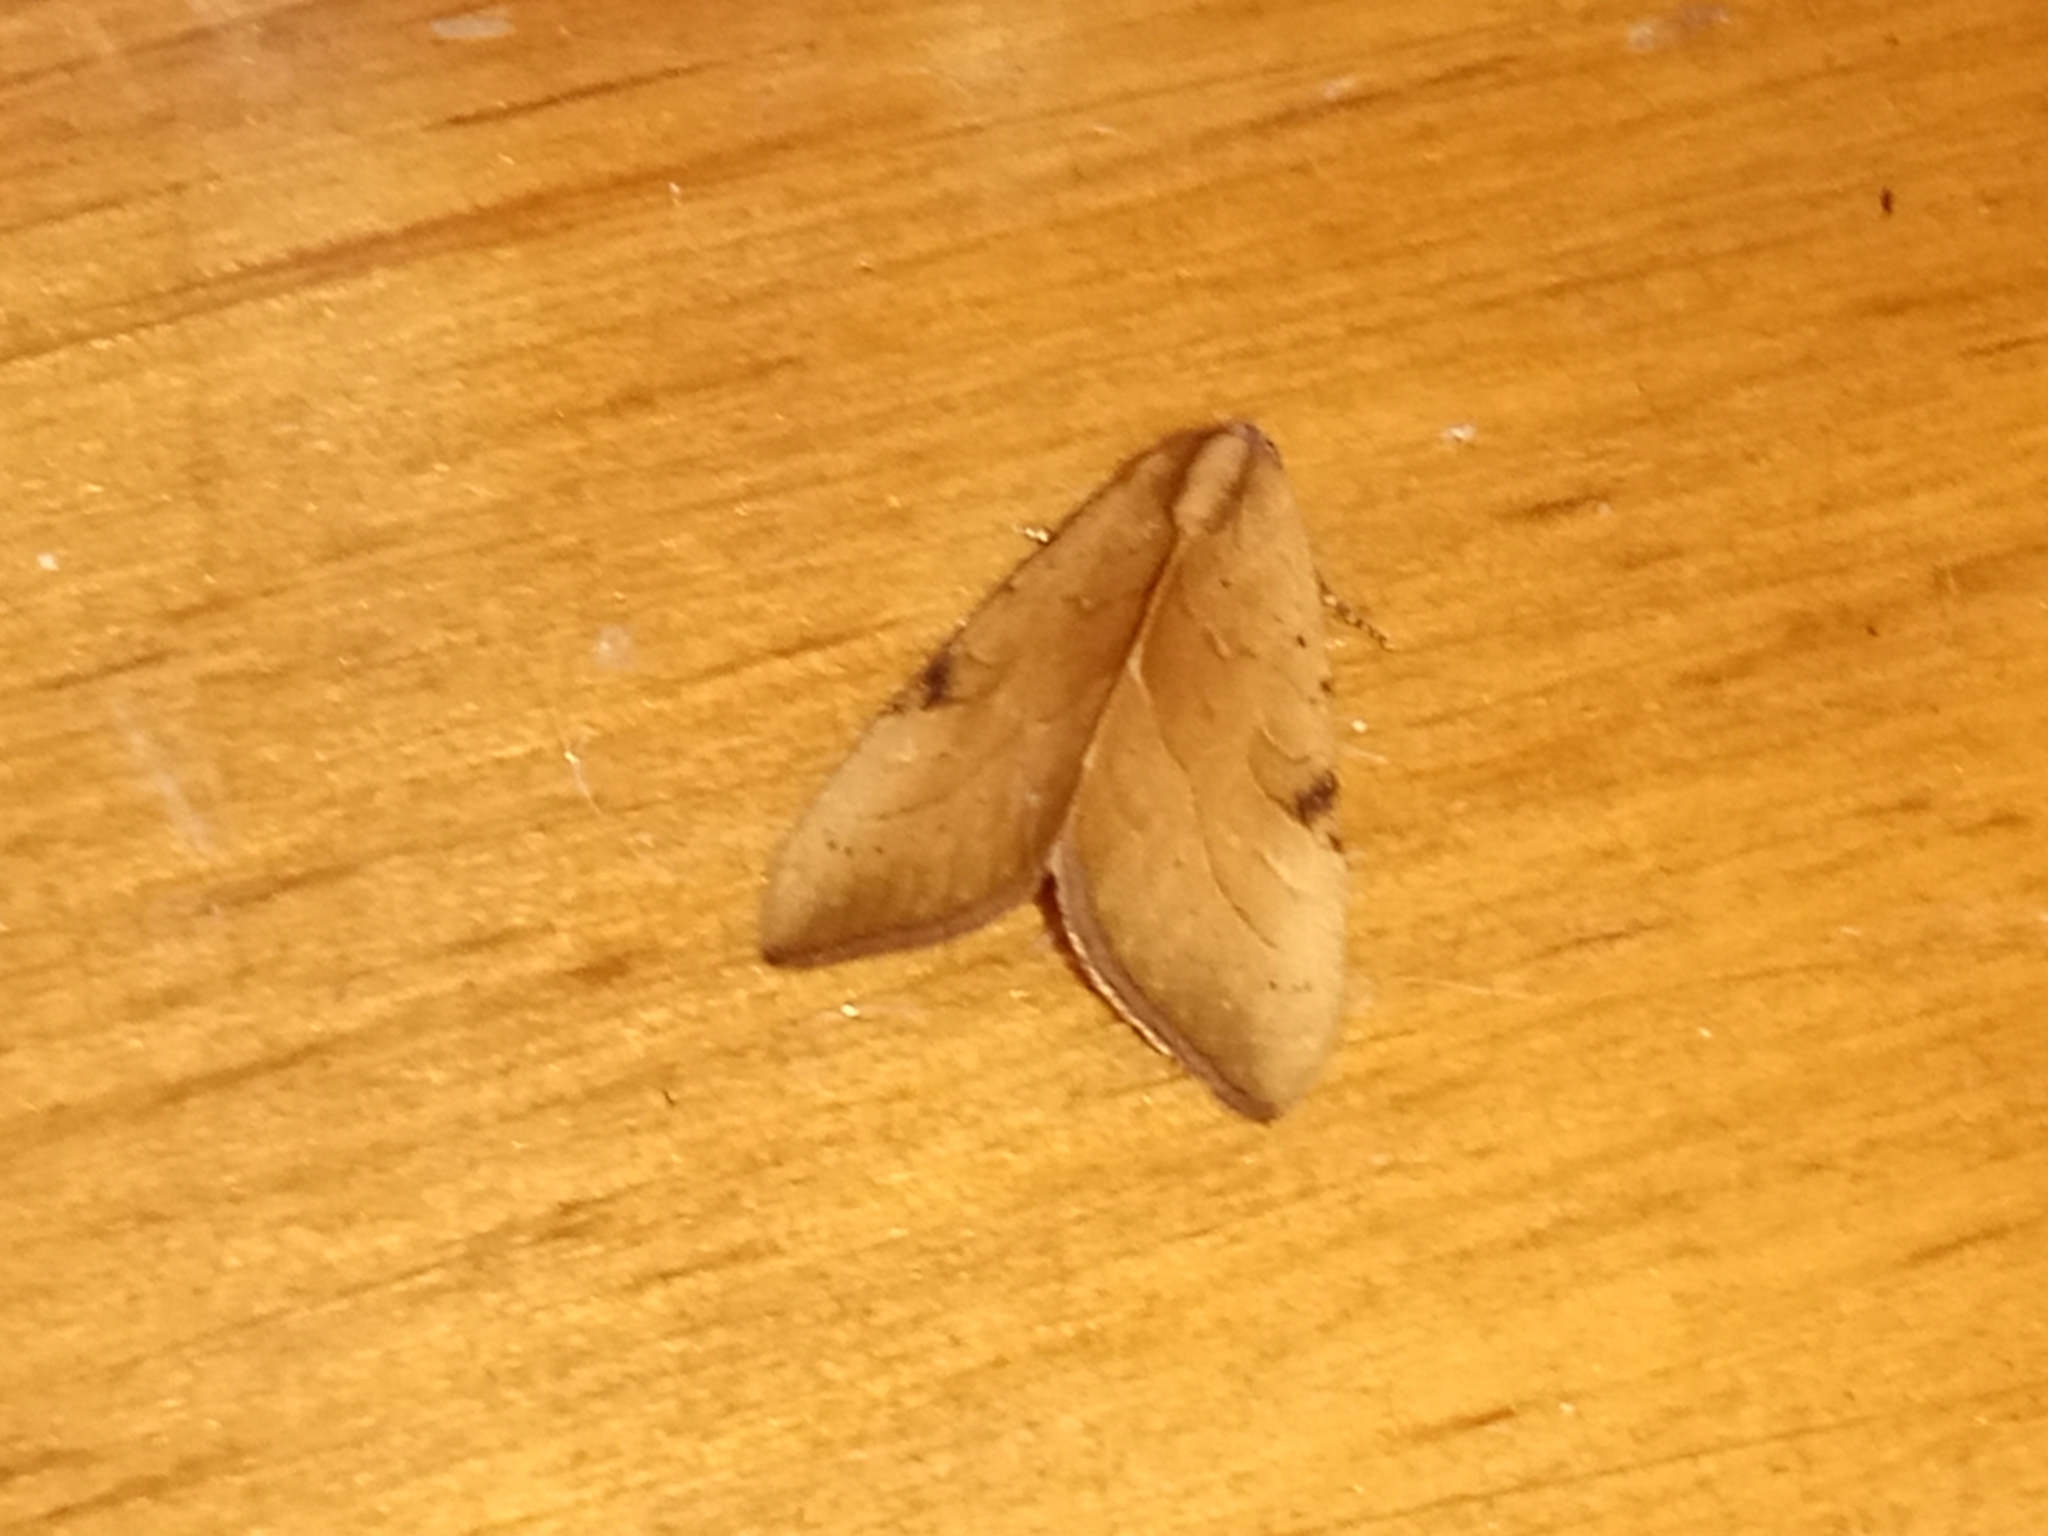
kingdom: Animalia
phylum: Arthropoda
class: Insecta
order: Lepidoptera
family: Noctuidae
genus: Galgula
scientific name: Galgula partita
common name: Wedgeling
